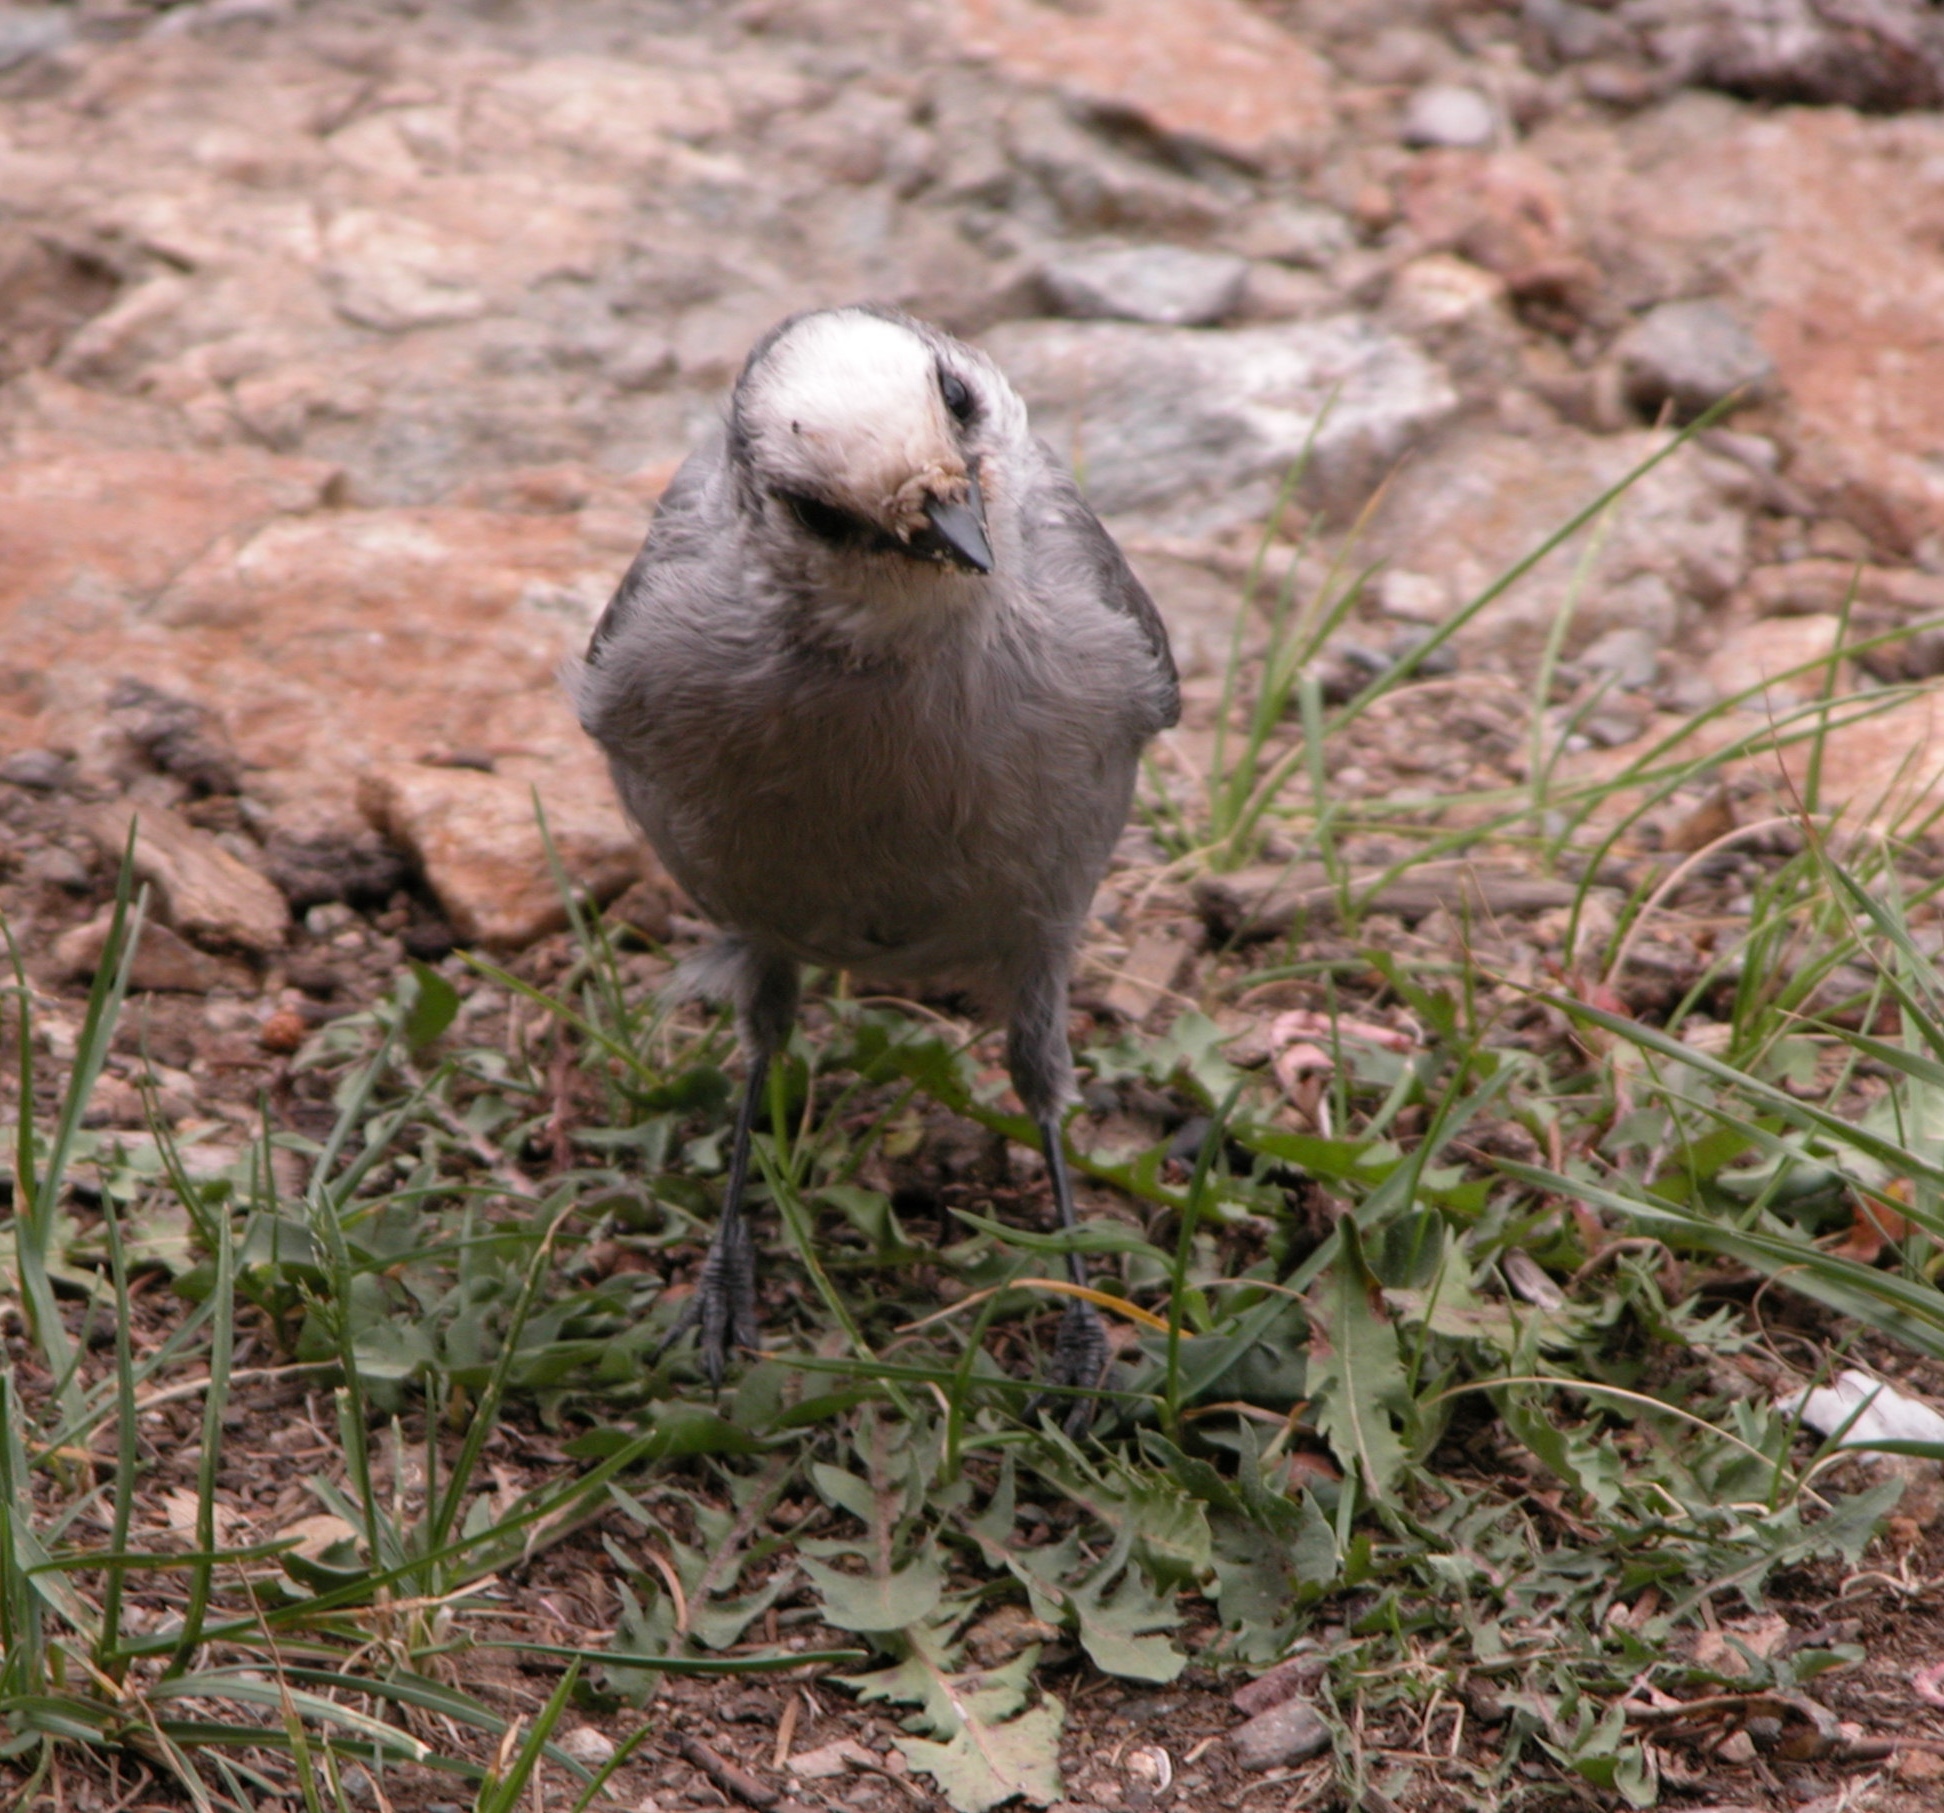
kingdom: Animalia
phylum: Chordata
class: Aves
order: Passeriformes
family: Corvidae
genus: Perisoreus
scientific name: Perisoreus canadensis
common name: Gray jay
